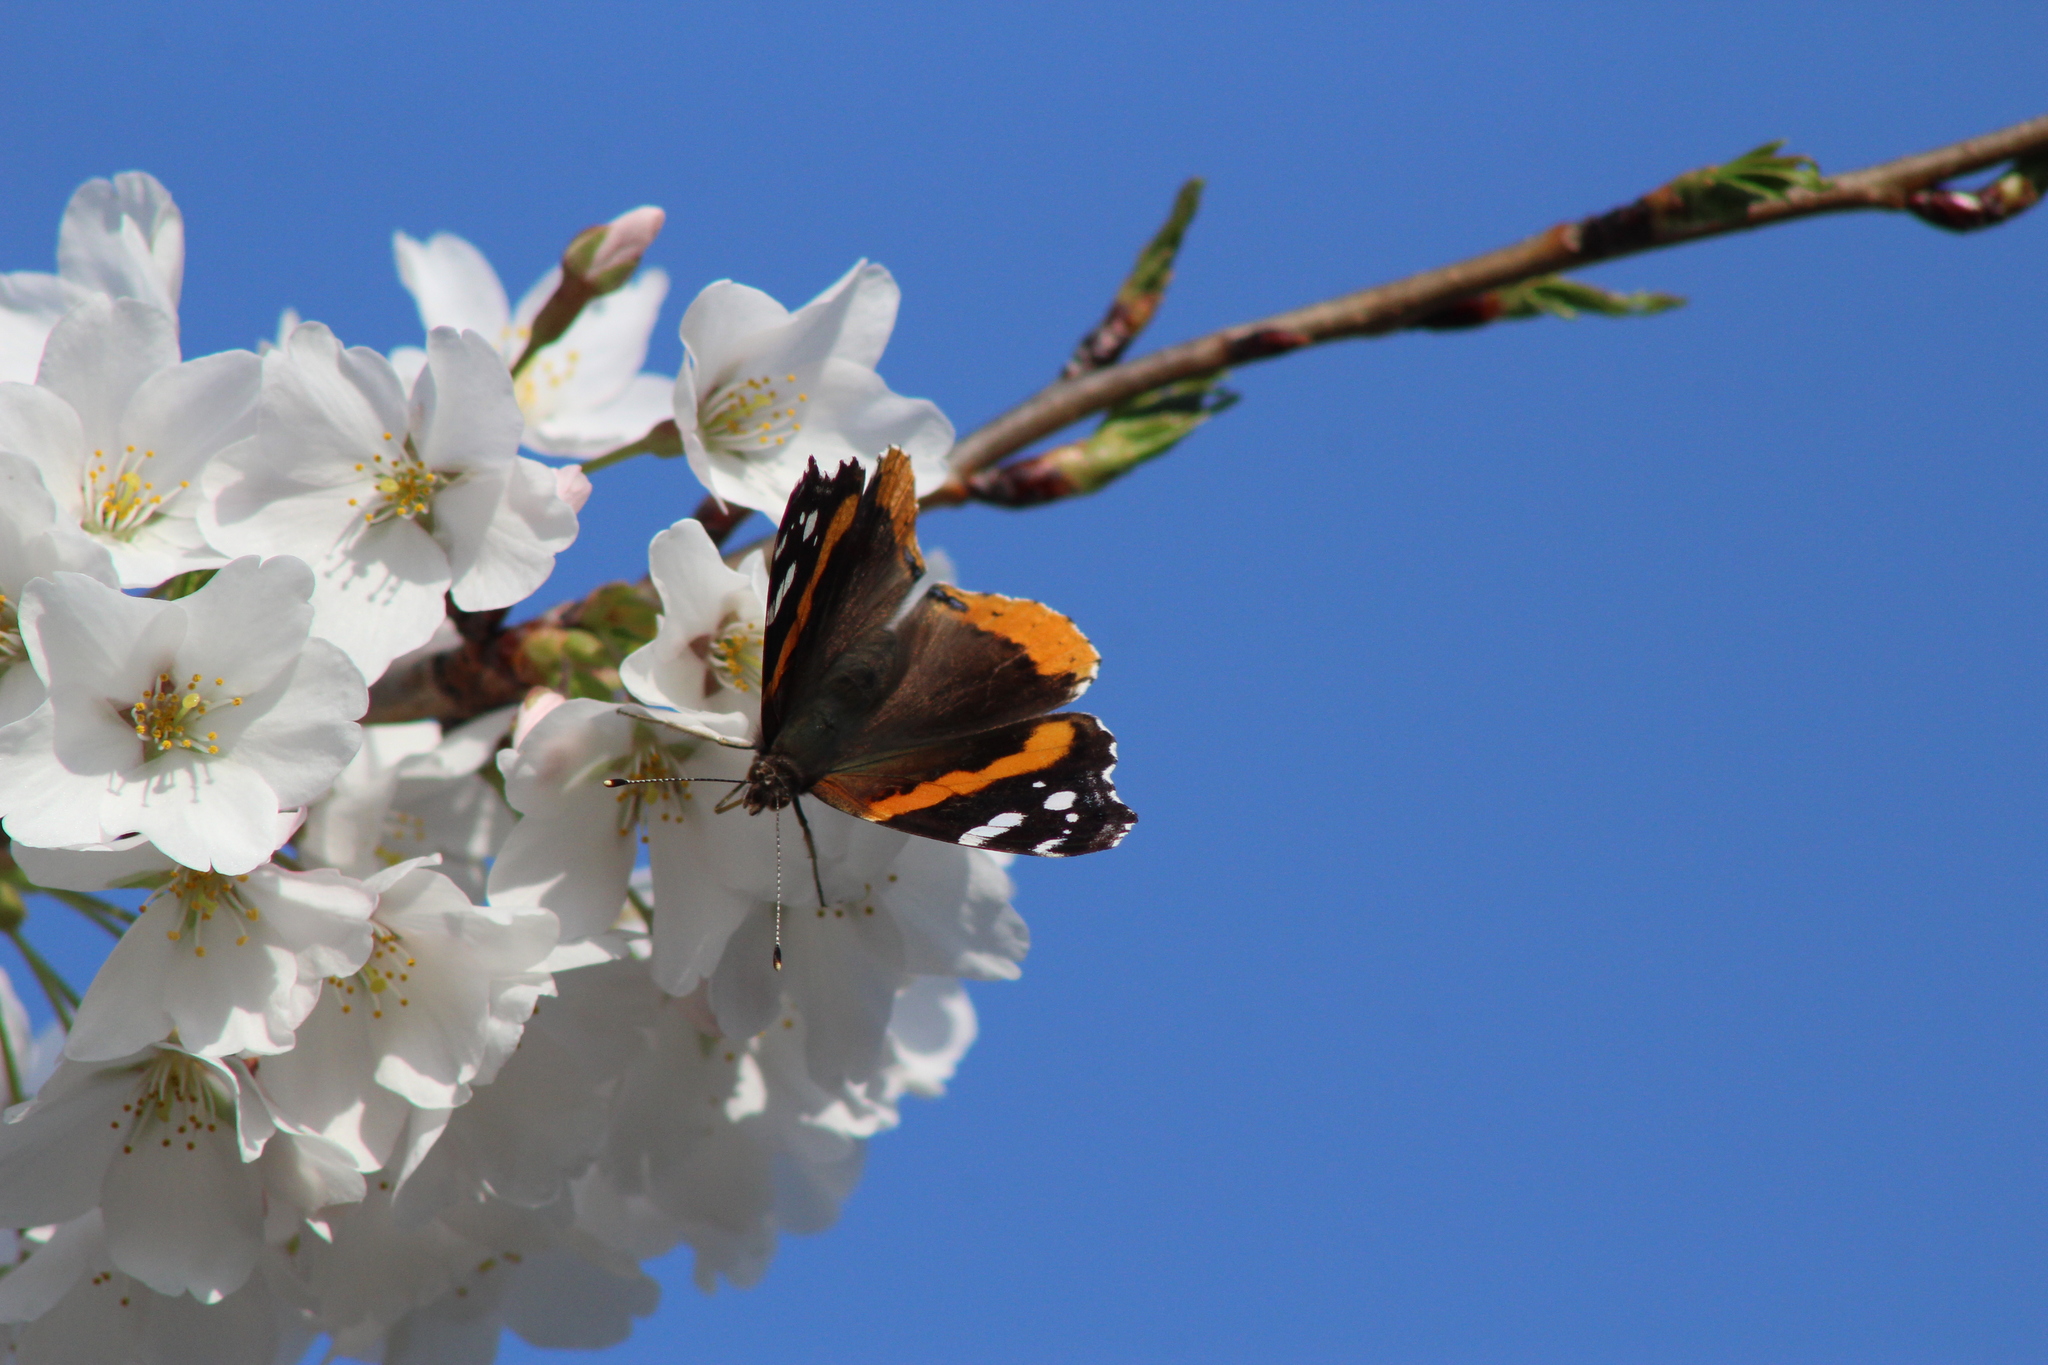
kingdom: Animalia
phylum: Arthropoda
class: Insecta
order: Lepidoptera
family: Nymphalidae
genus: Vanessa
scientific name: Vanessa atalanta
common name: Red admiral
